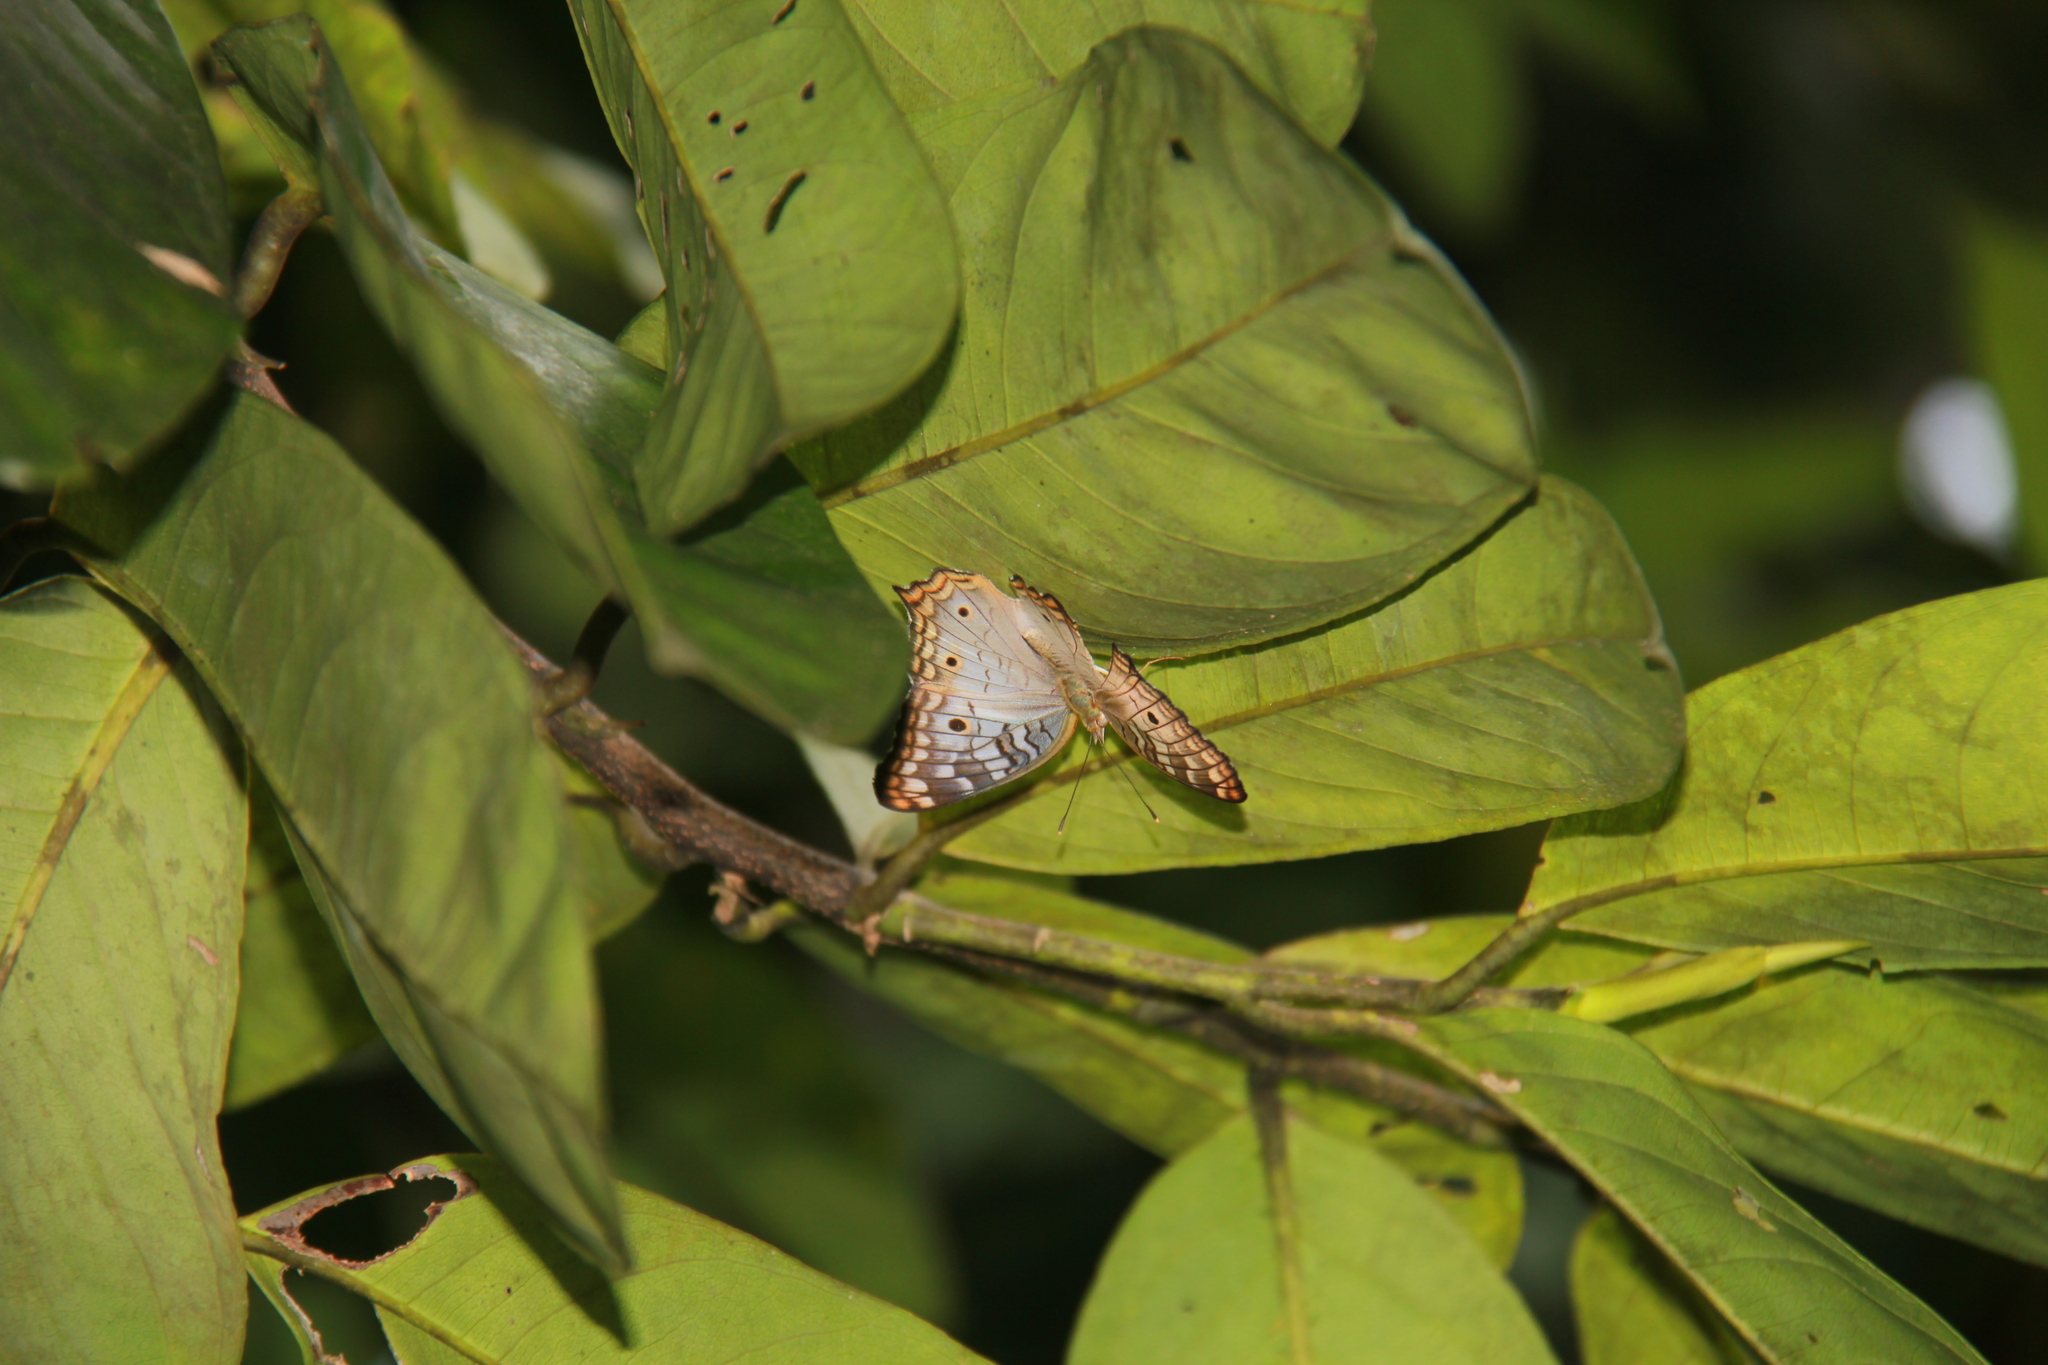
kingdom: Animalia
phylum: Arthropoda
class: Insecta
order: Lepidoptera
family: Nymphalidae
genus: Anartia
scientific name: Anartia jatrophae
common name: White peacock
